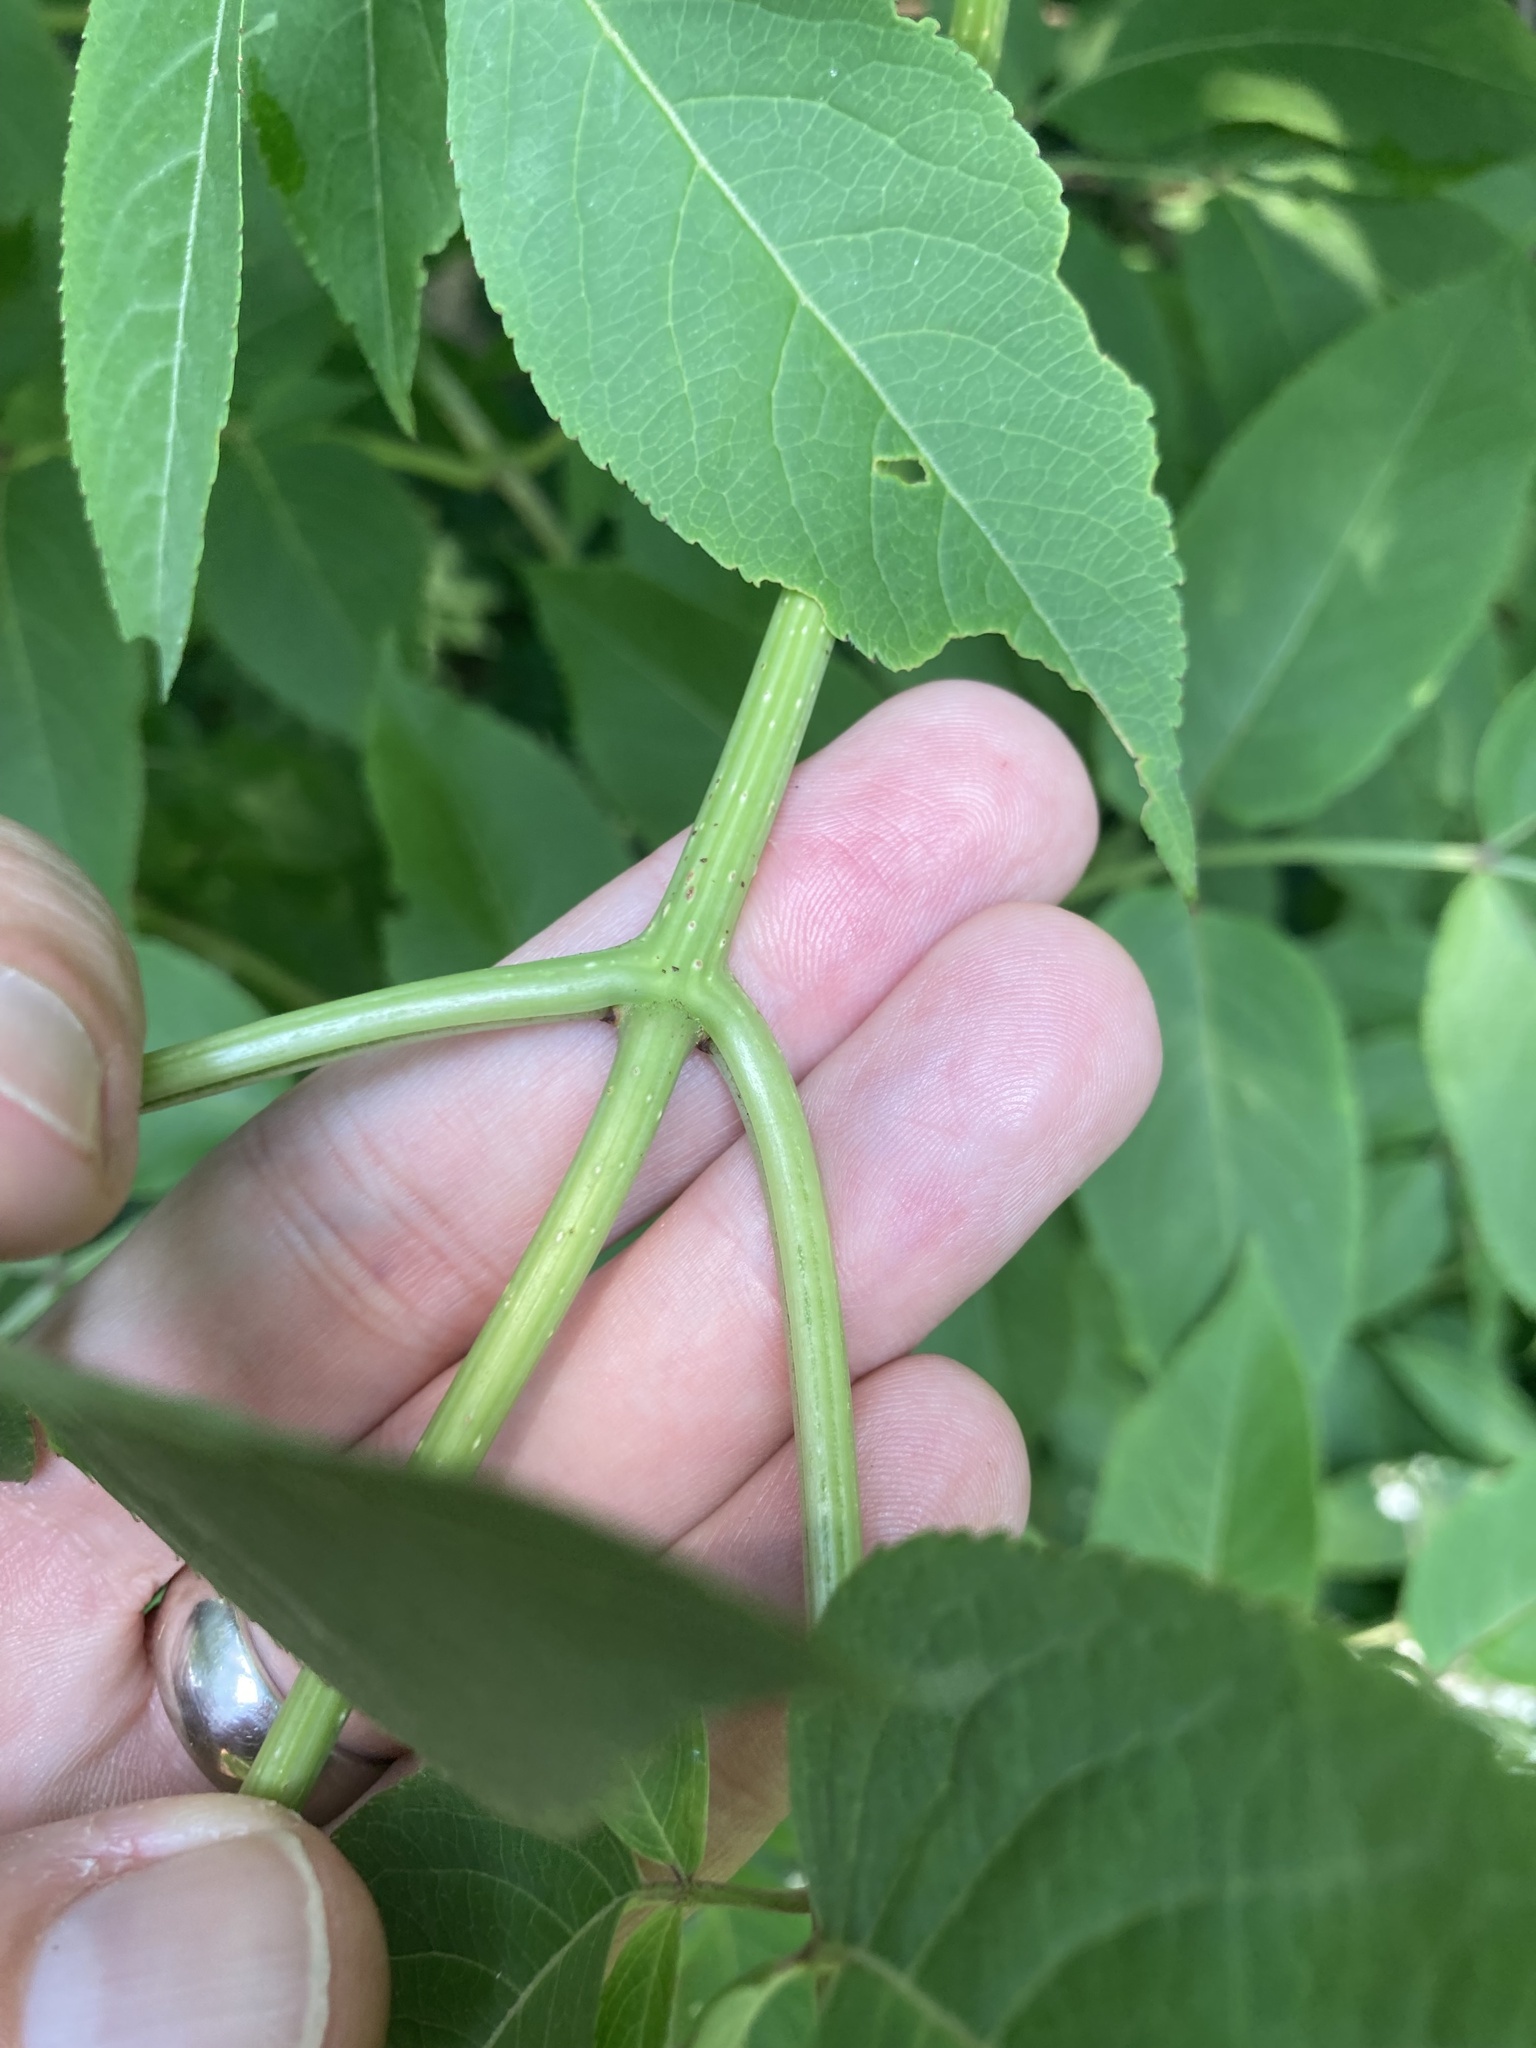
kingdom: Plantae
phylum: Tracheophyta
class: Magnoliopsida
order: Dipsacales
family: Viburnaceae
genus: Sambucus
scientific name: Sambucus canadensis
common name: American elder
